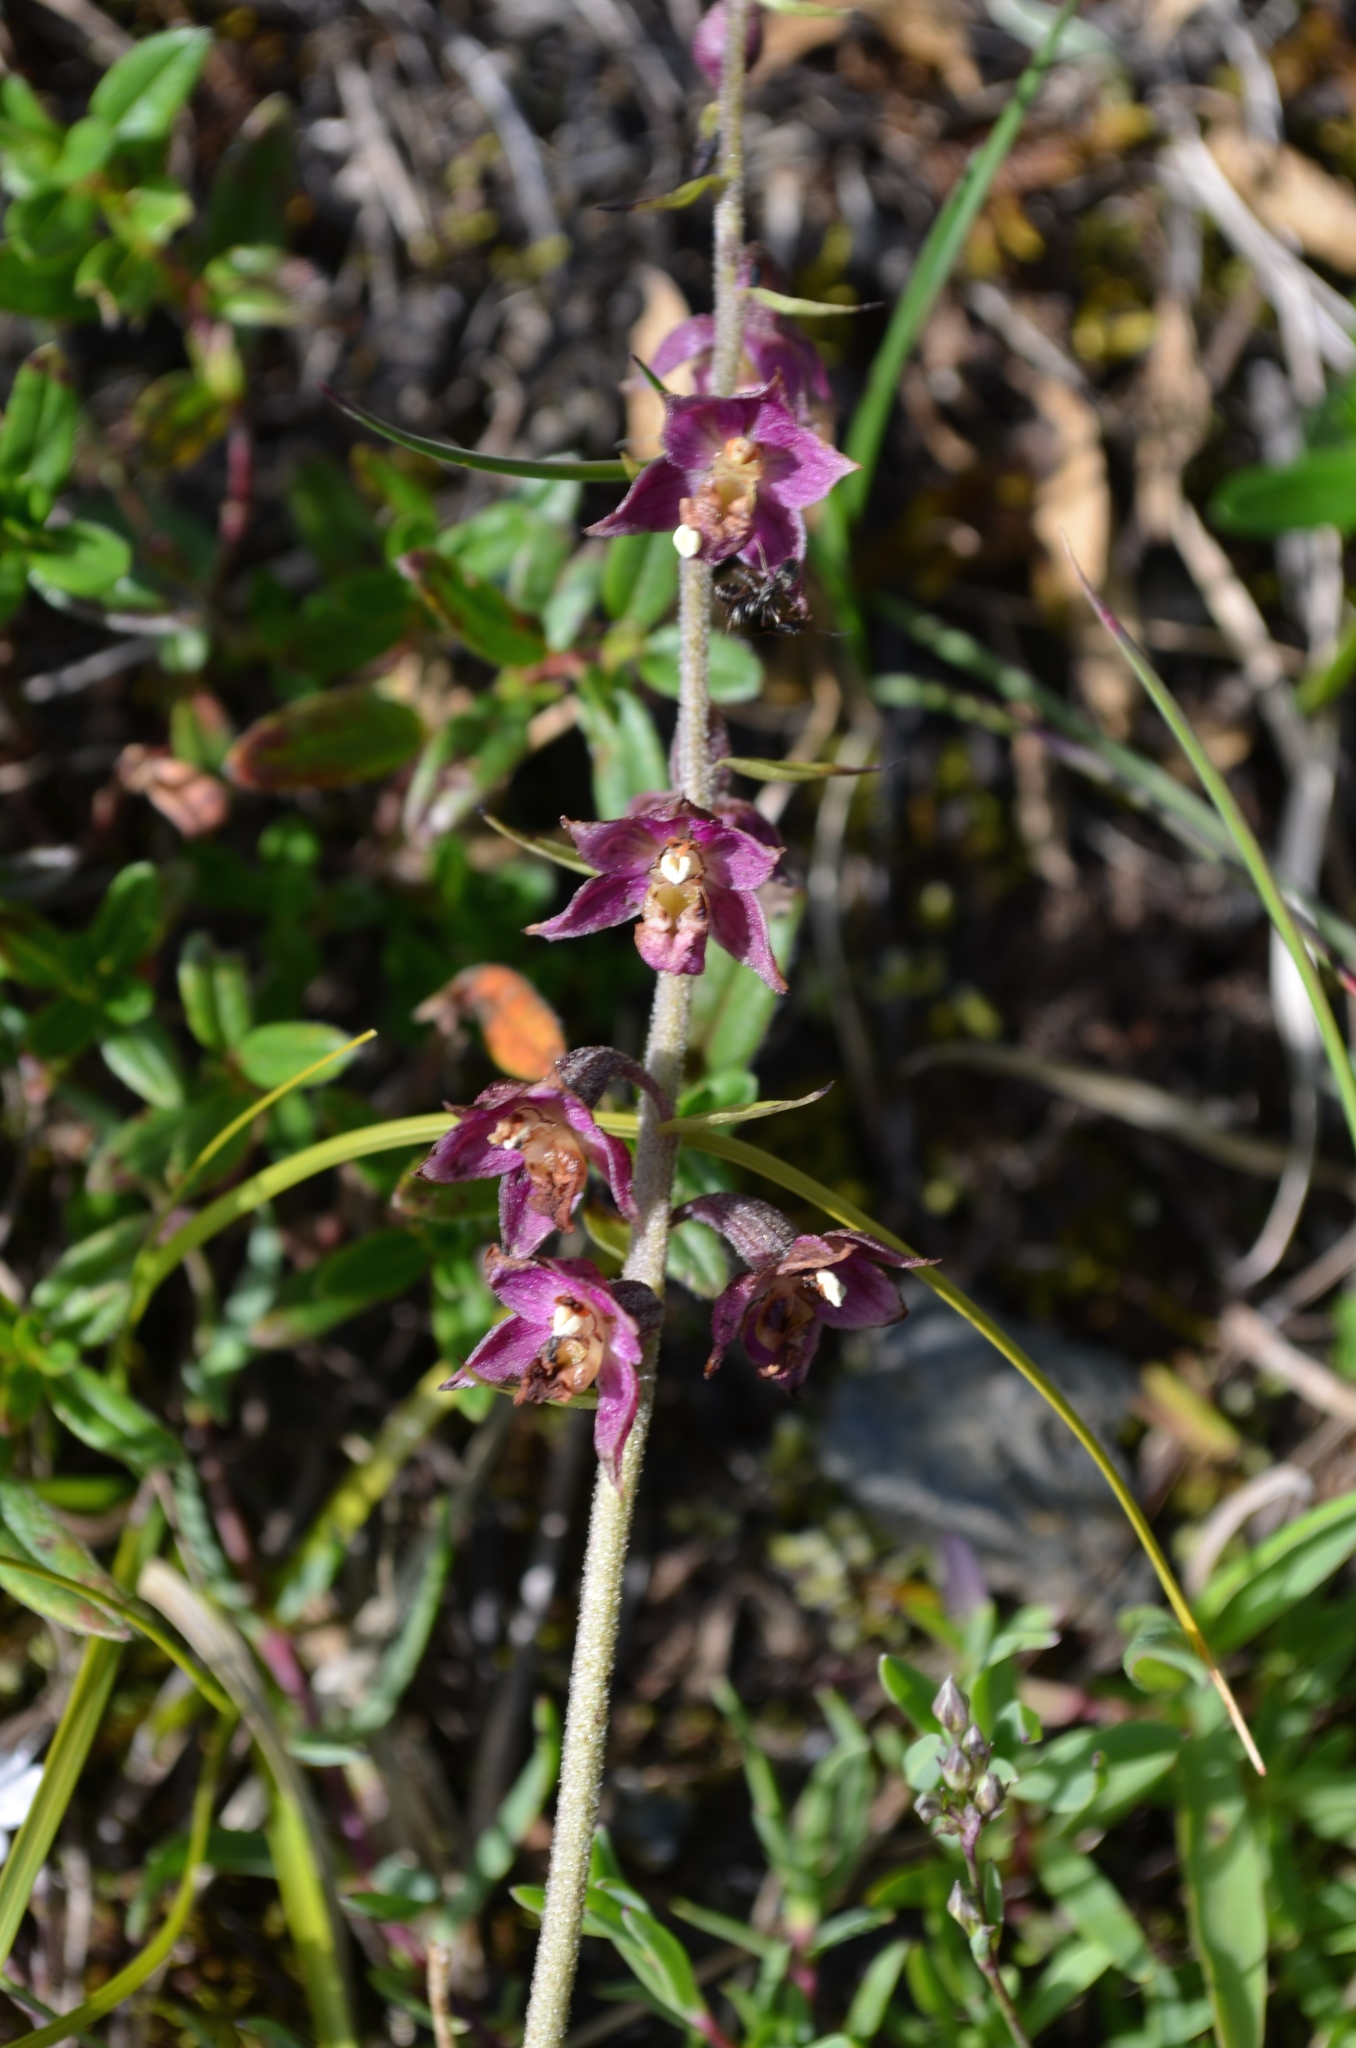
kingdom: Plantae
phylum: Tracheophyta
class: Liliopsida
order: Asparagales
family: Orchidaceae
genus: Epipactis
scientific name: Epipactis atrorubens
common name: Dark-red helleborine
